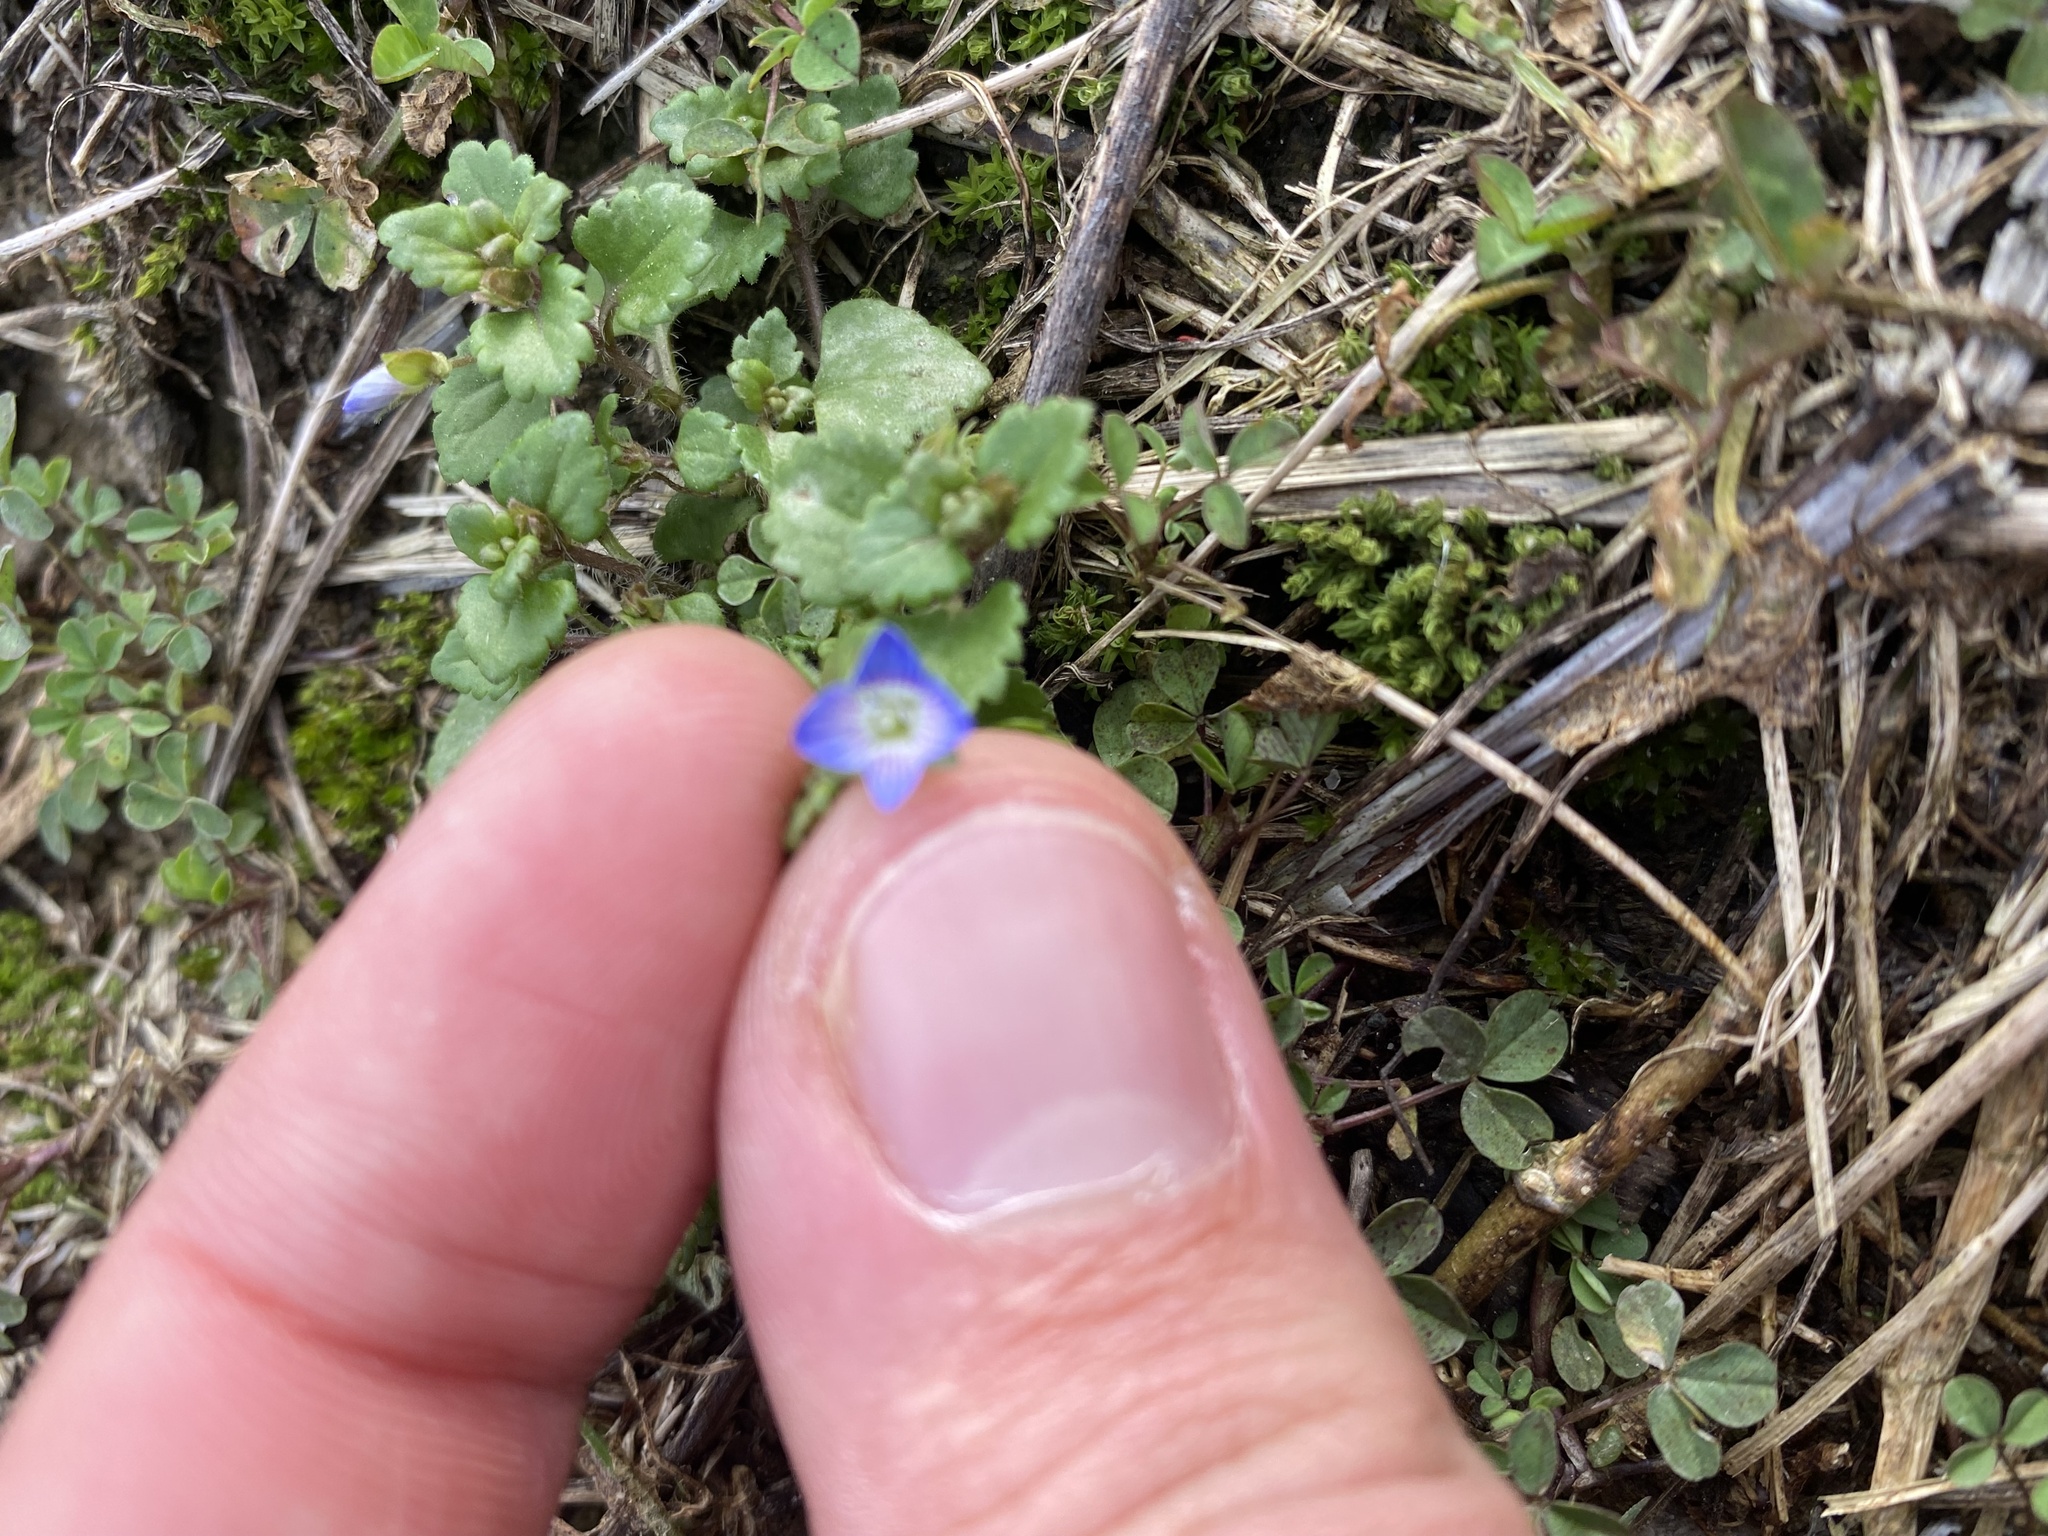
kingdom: Plantae
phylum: Tracheophyta
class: Magnoliopsida
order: Lamiales
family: Plantaginaceae
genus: Veronica
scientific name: Veronica persica
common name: Common field-speedwell
